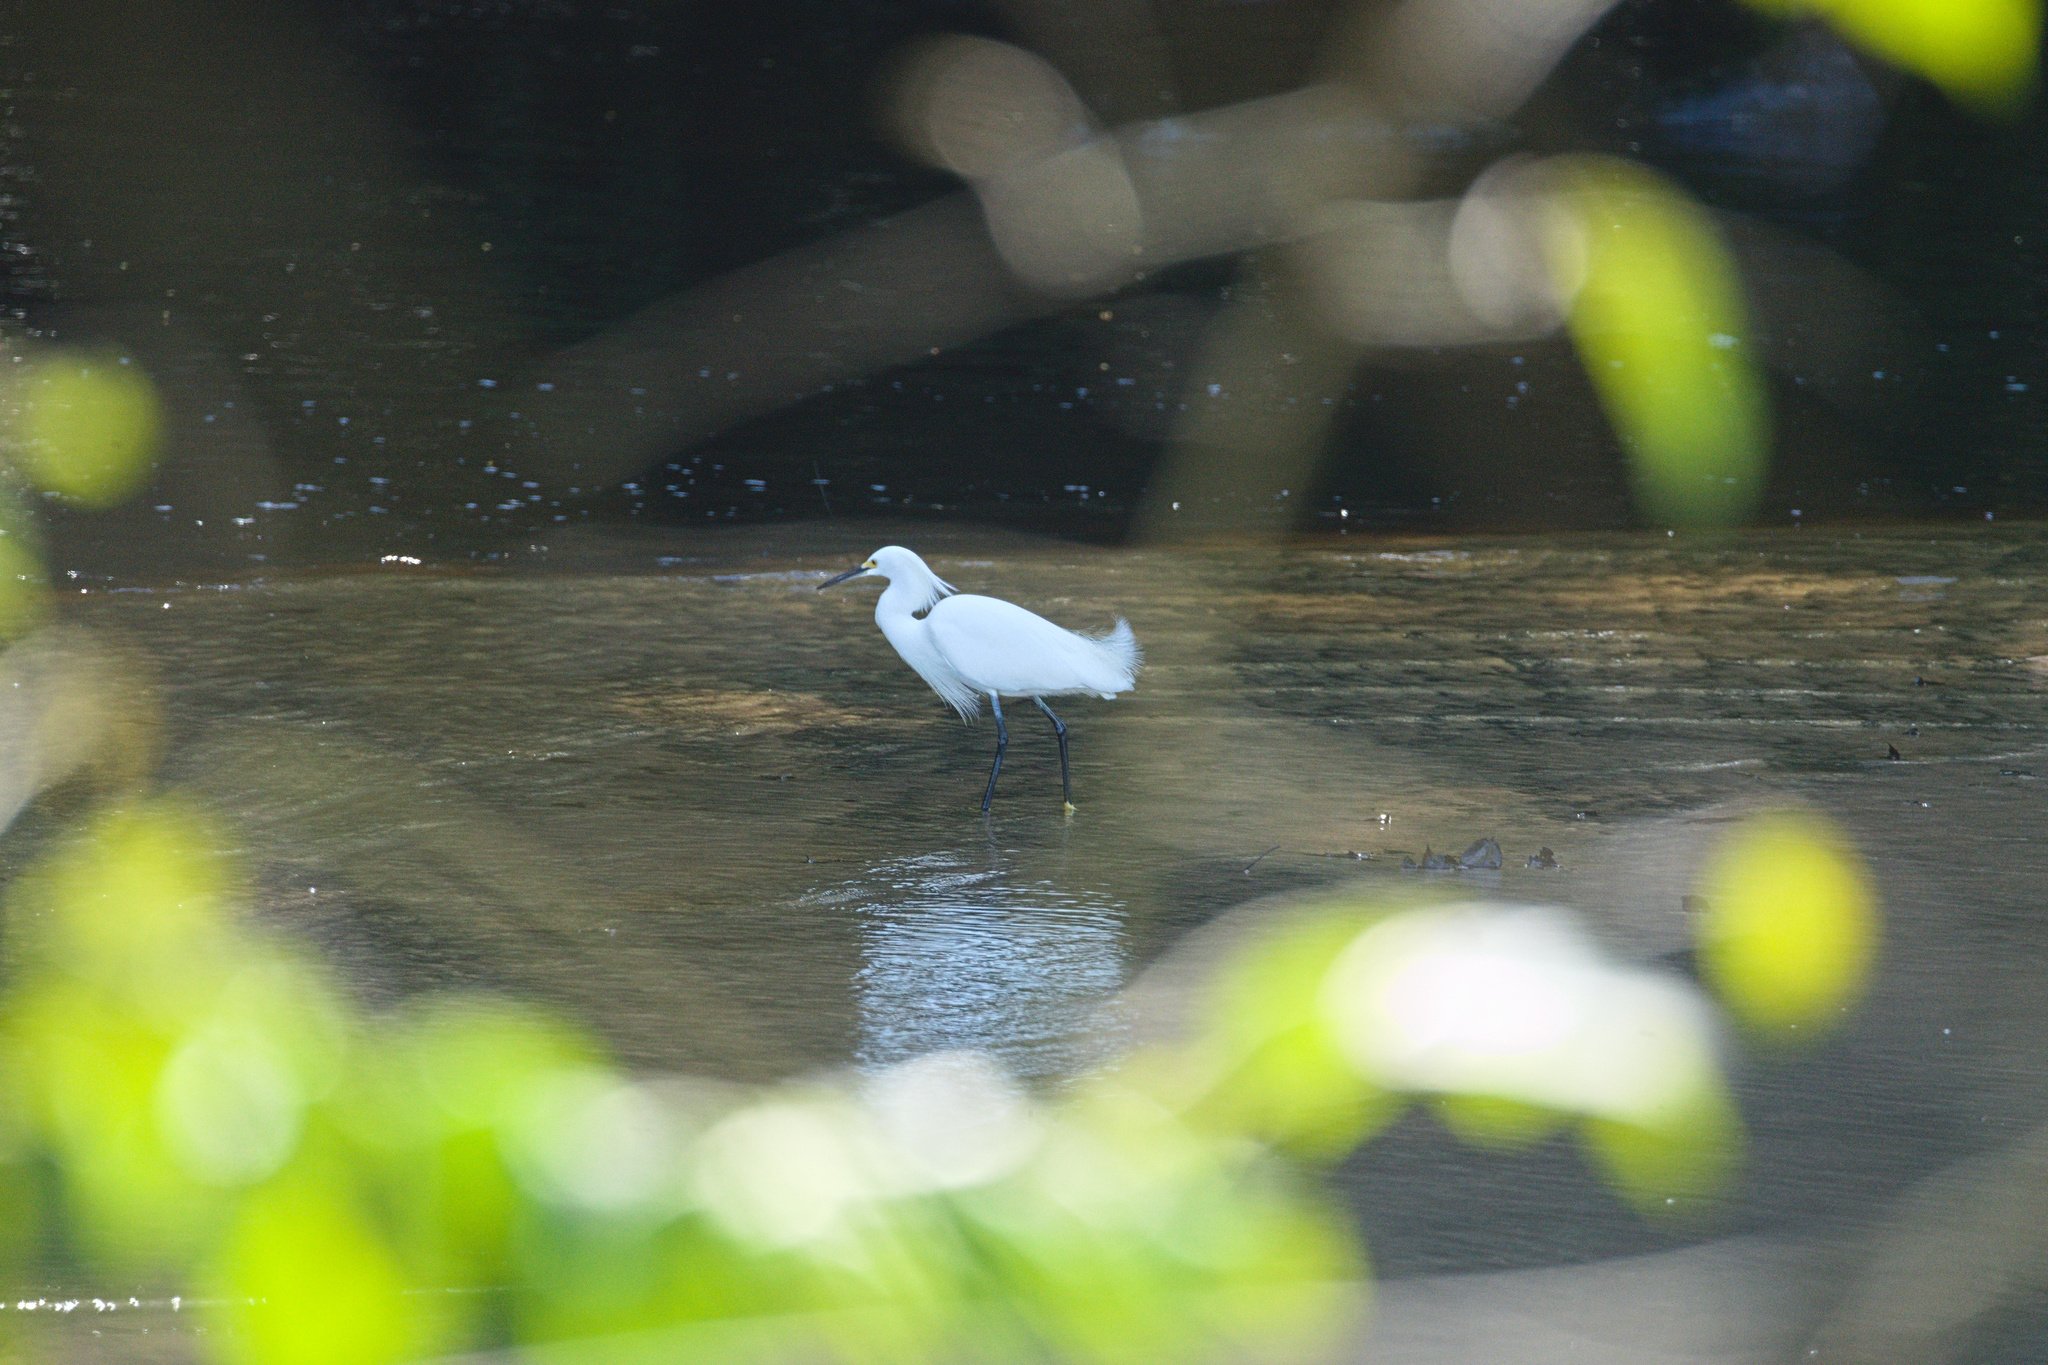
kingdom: Animalia
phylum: Chordata
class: Aves
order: Pelecaniformes
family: Ardeidae
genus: Egretta
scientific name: Egretta thula
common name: Snowy egret
